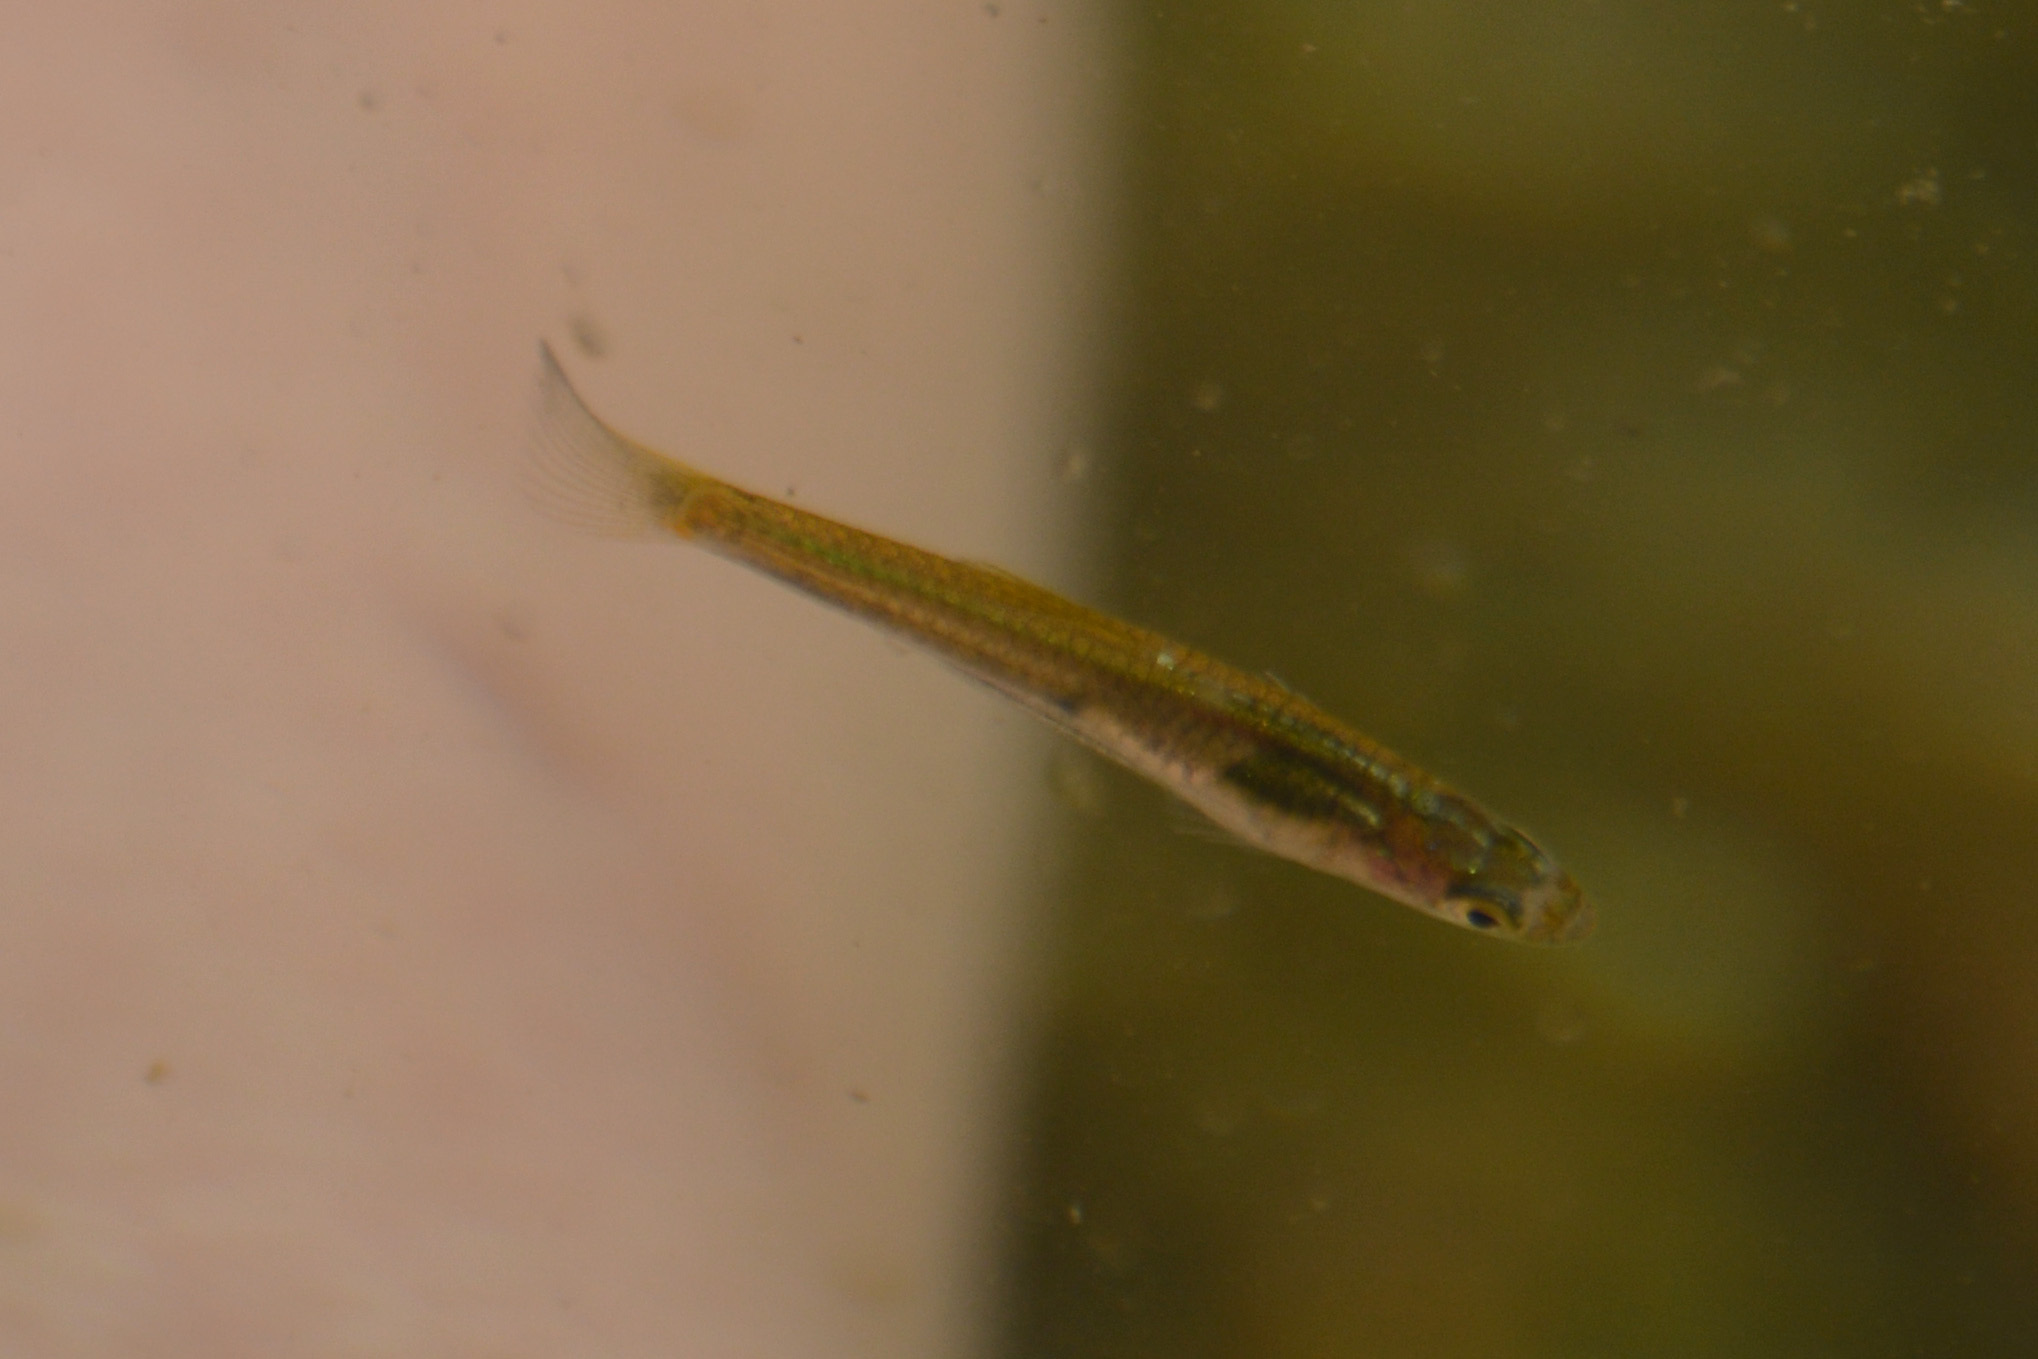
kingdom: Animalia
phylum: Chordata
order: Cyprinodontiformes
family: Poeciliidae
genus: Cnesterodon
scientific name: Cnesterodon decemmaculatus
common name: Ten spotted live-bearer
